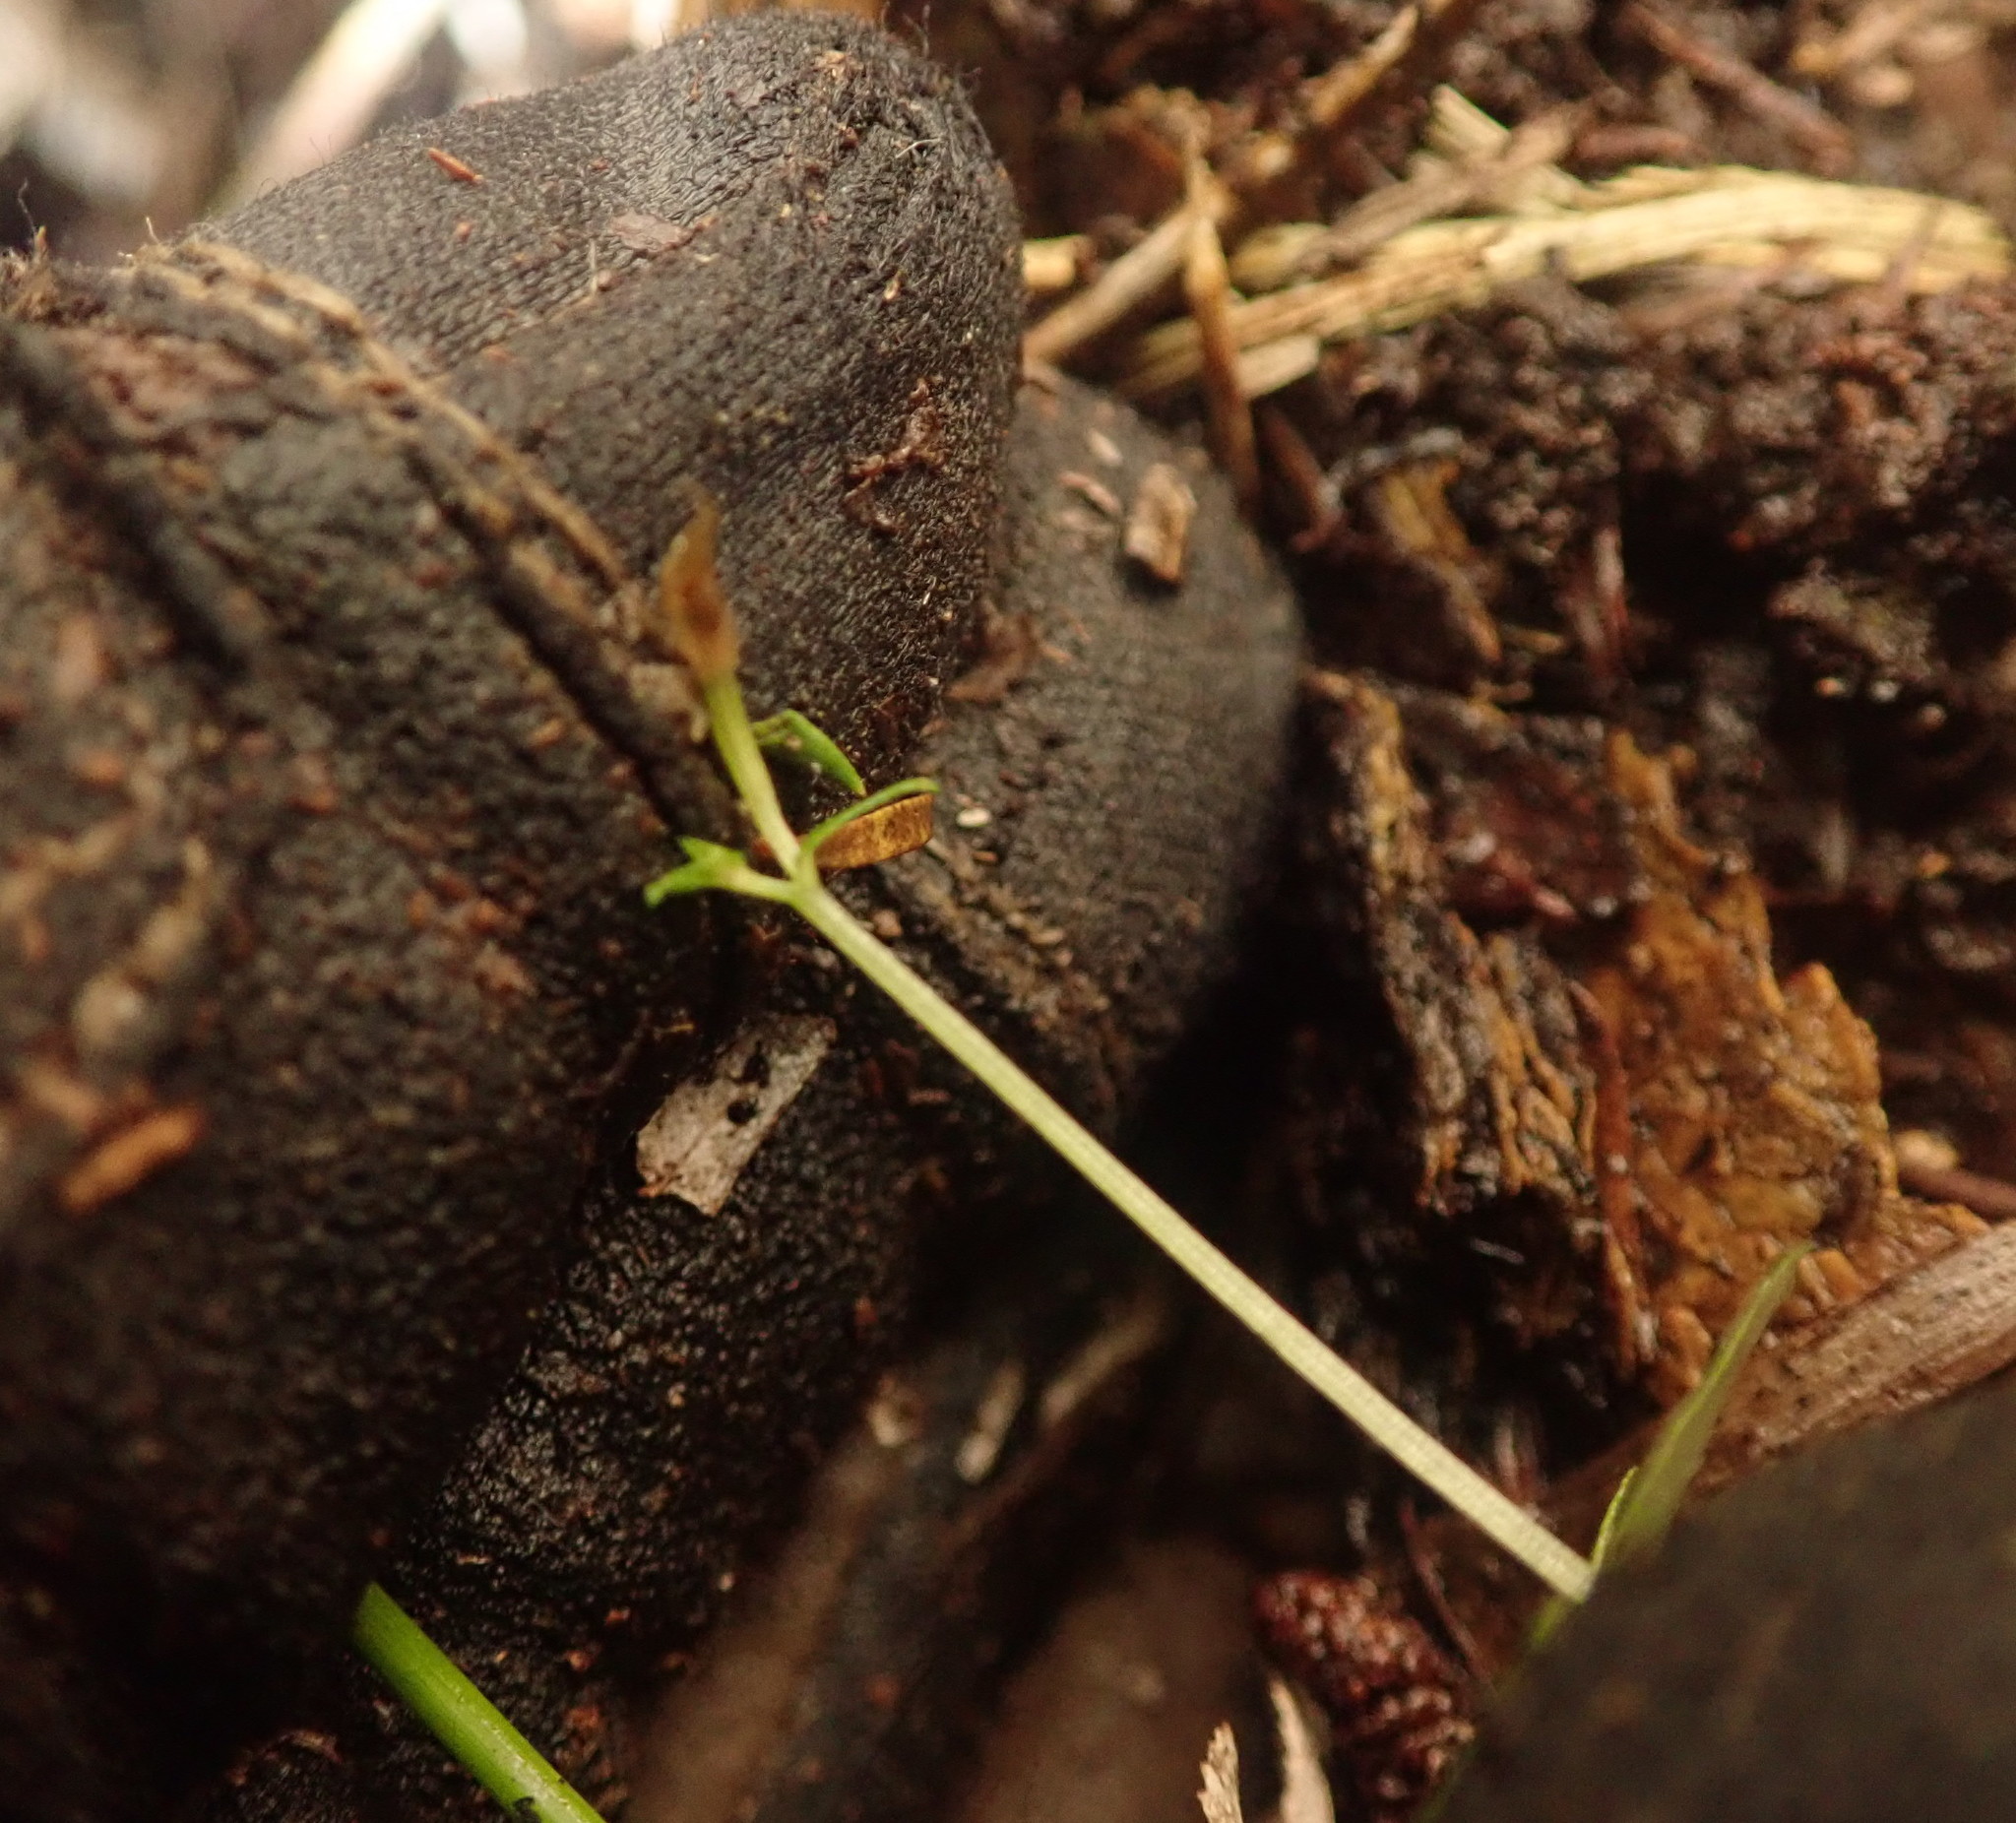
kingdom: Plantae
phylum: Tracheophyta
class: Liliopsida
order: Asparagales
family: Orchidaceae
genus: Acianthus
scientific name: Acianthus sinclairii
